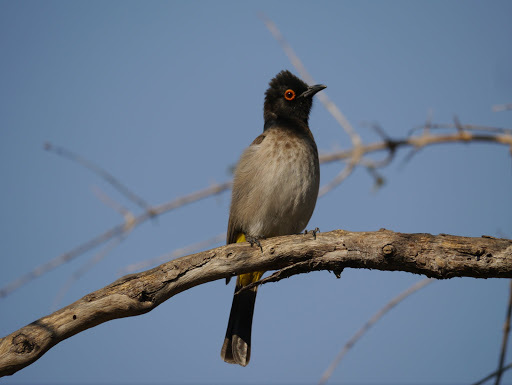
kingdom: Animalia
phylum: Chordata
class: Aves
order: Passeriformes
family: Pycnonotidae
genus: Pycnonotus
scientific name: Pycnonotus nigricans
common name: African red-eyed bulbul
